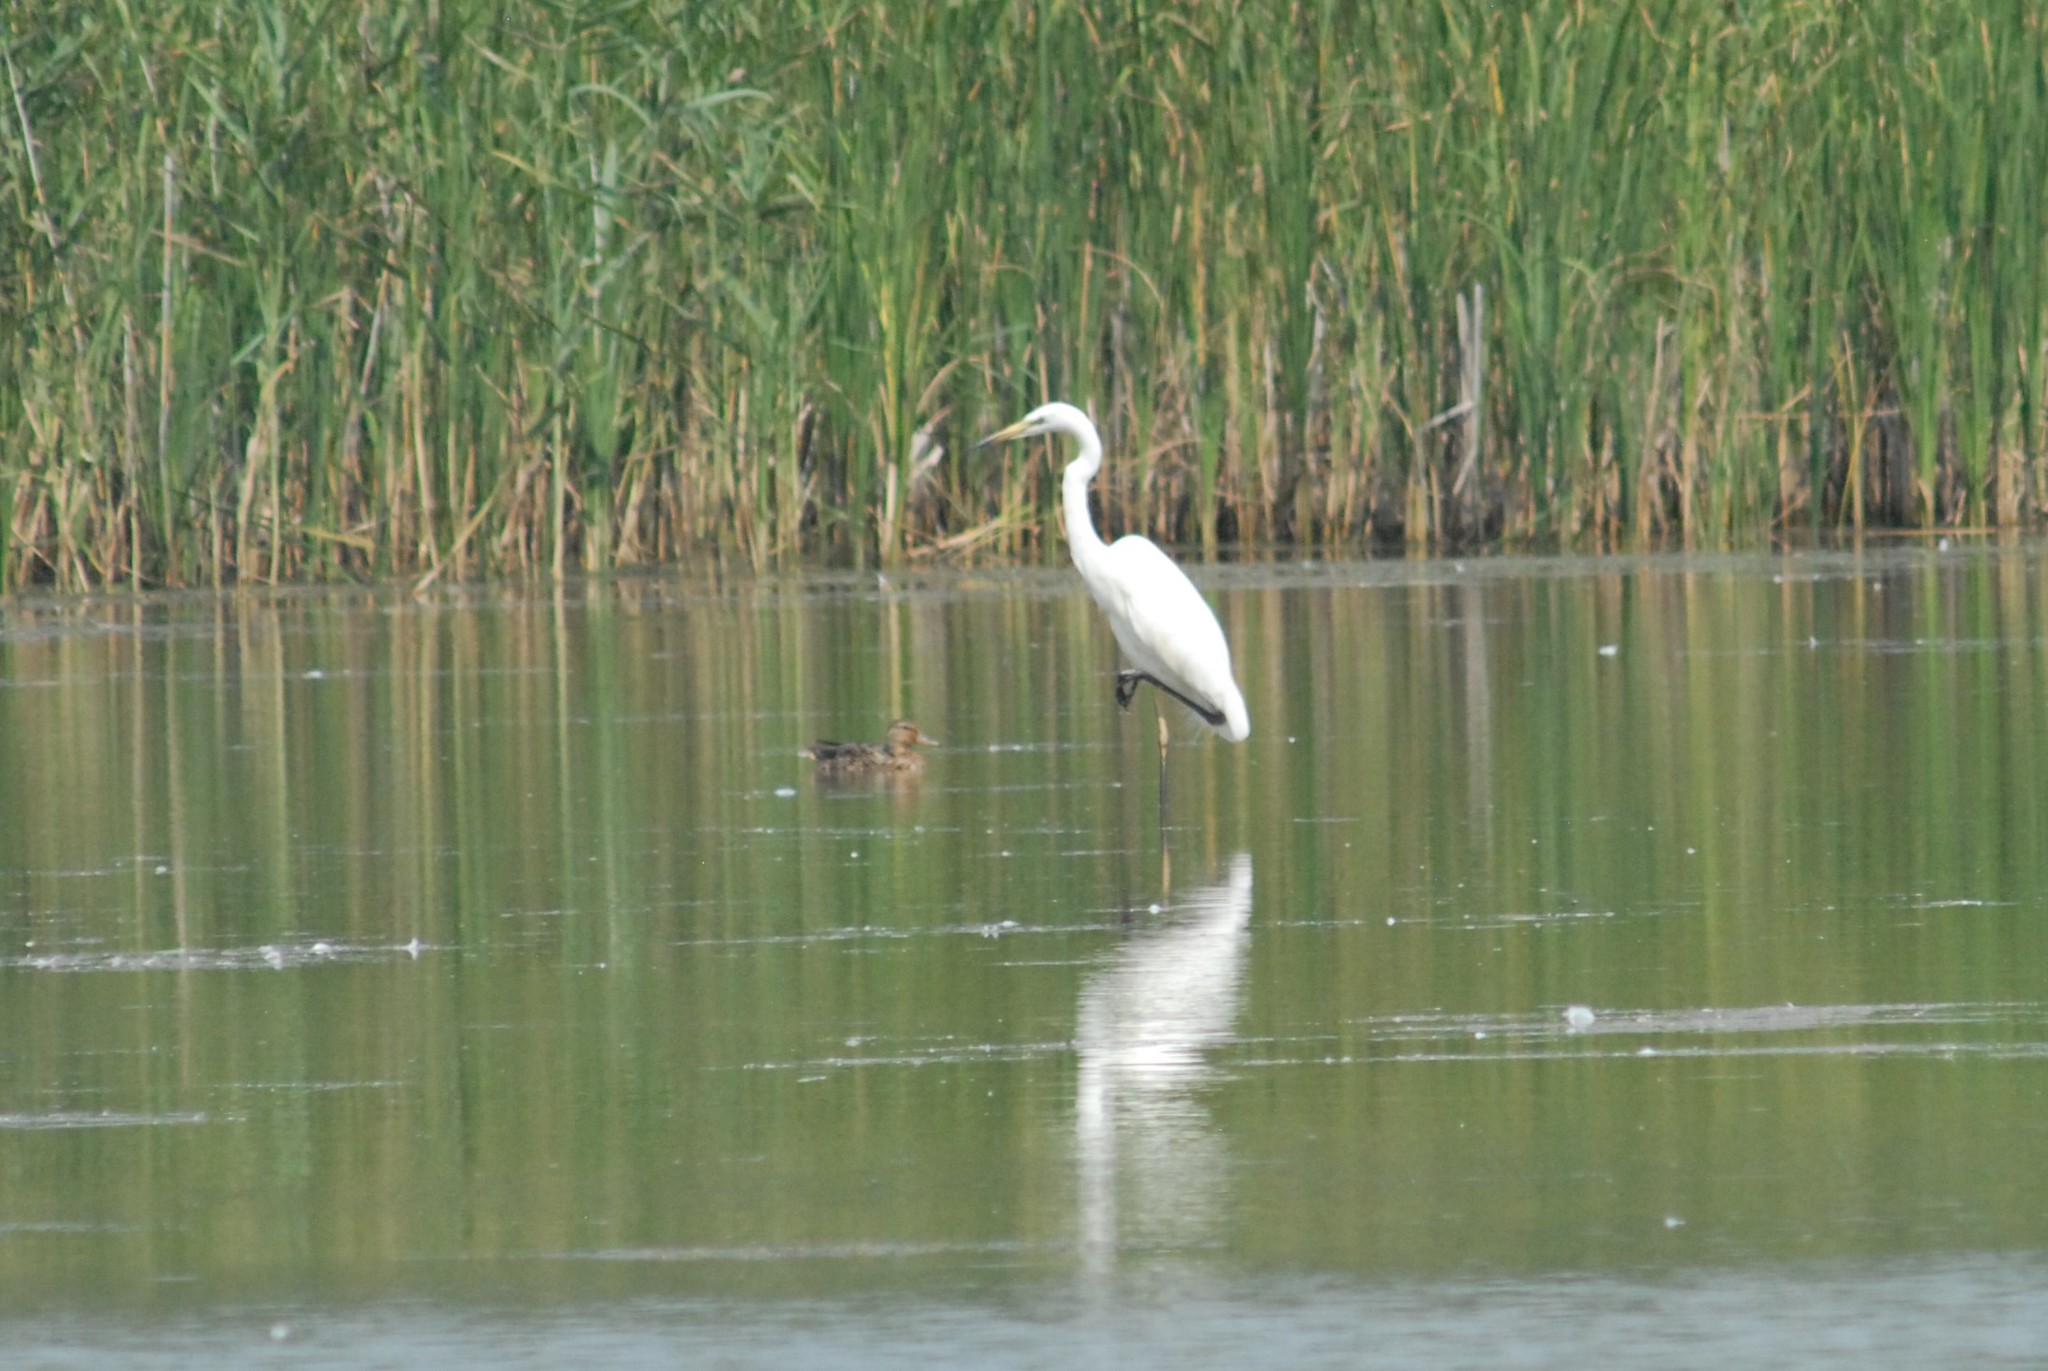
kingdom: Animalia
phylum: Chordata
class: Aves
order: Pelecaniformes
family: Ardeidae
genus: Ardea
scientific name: Ardea alba
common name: Great egret
